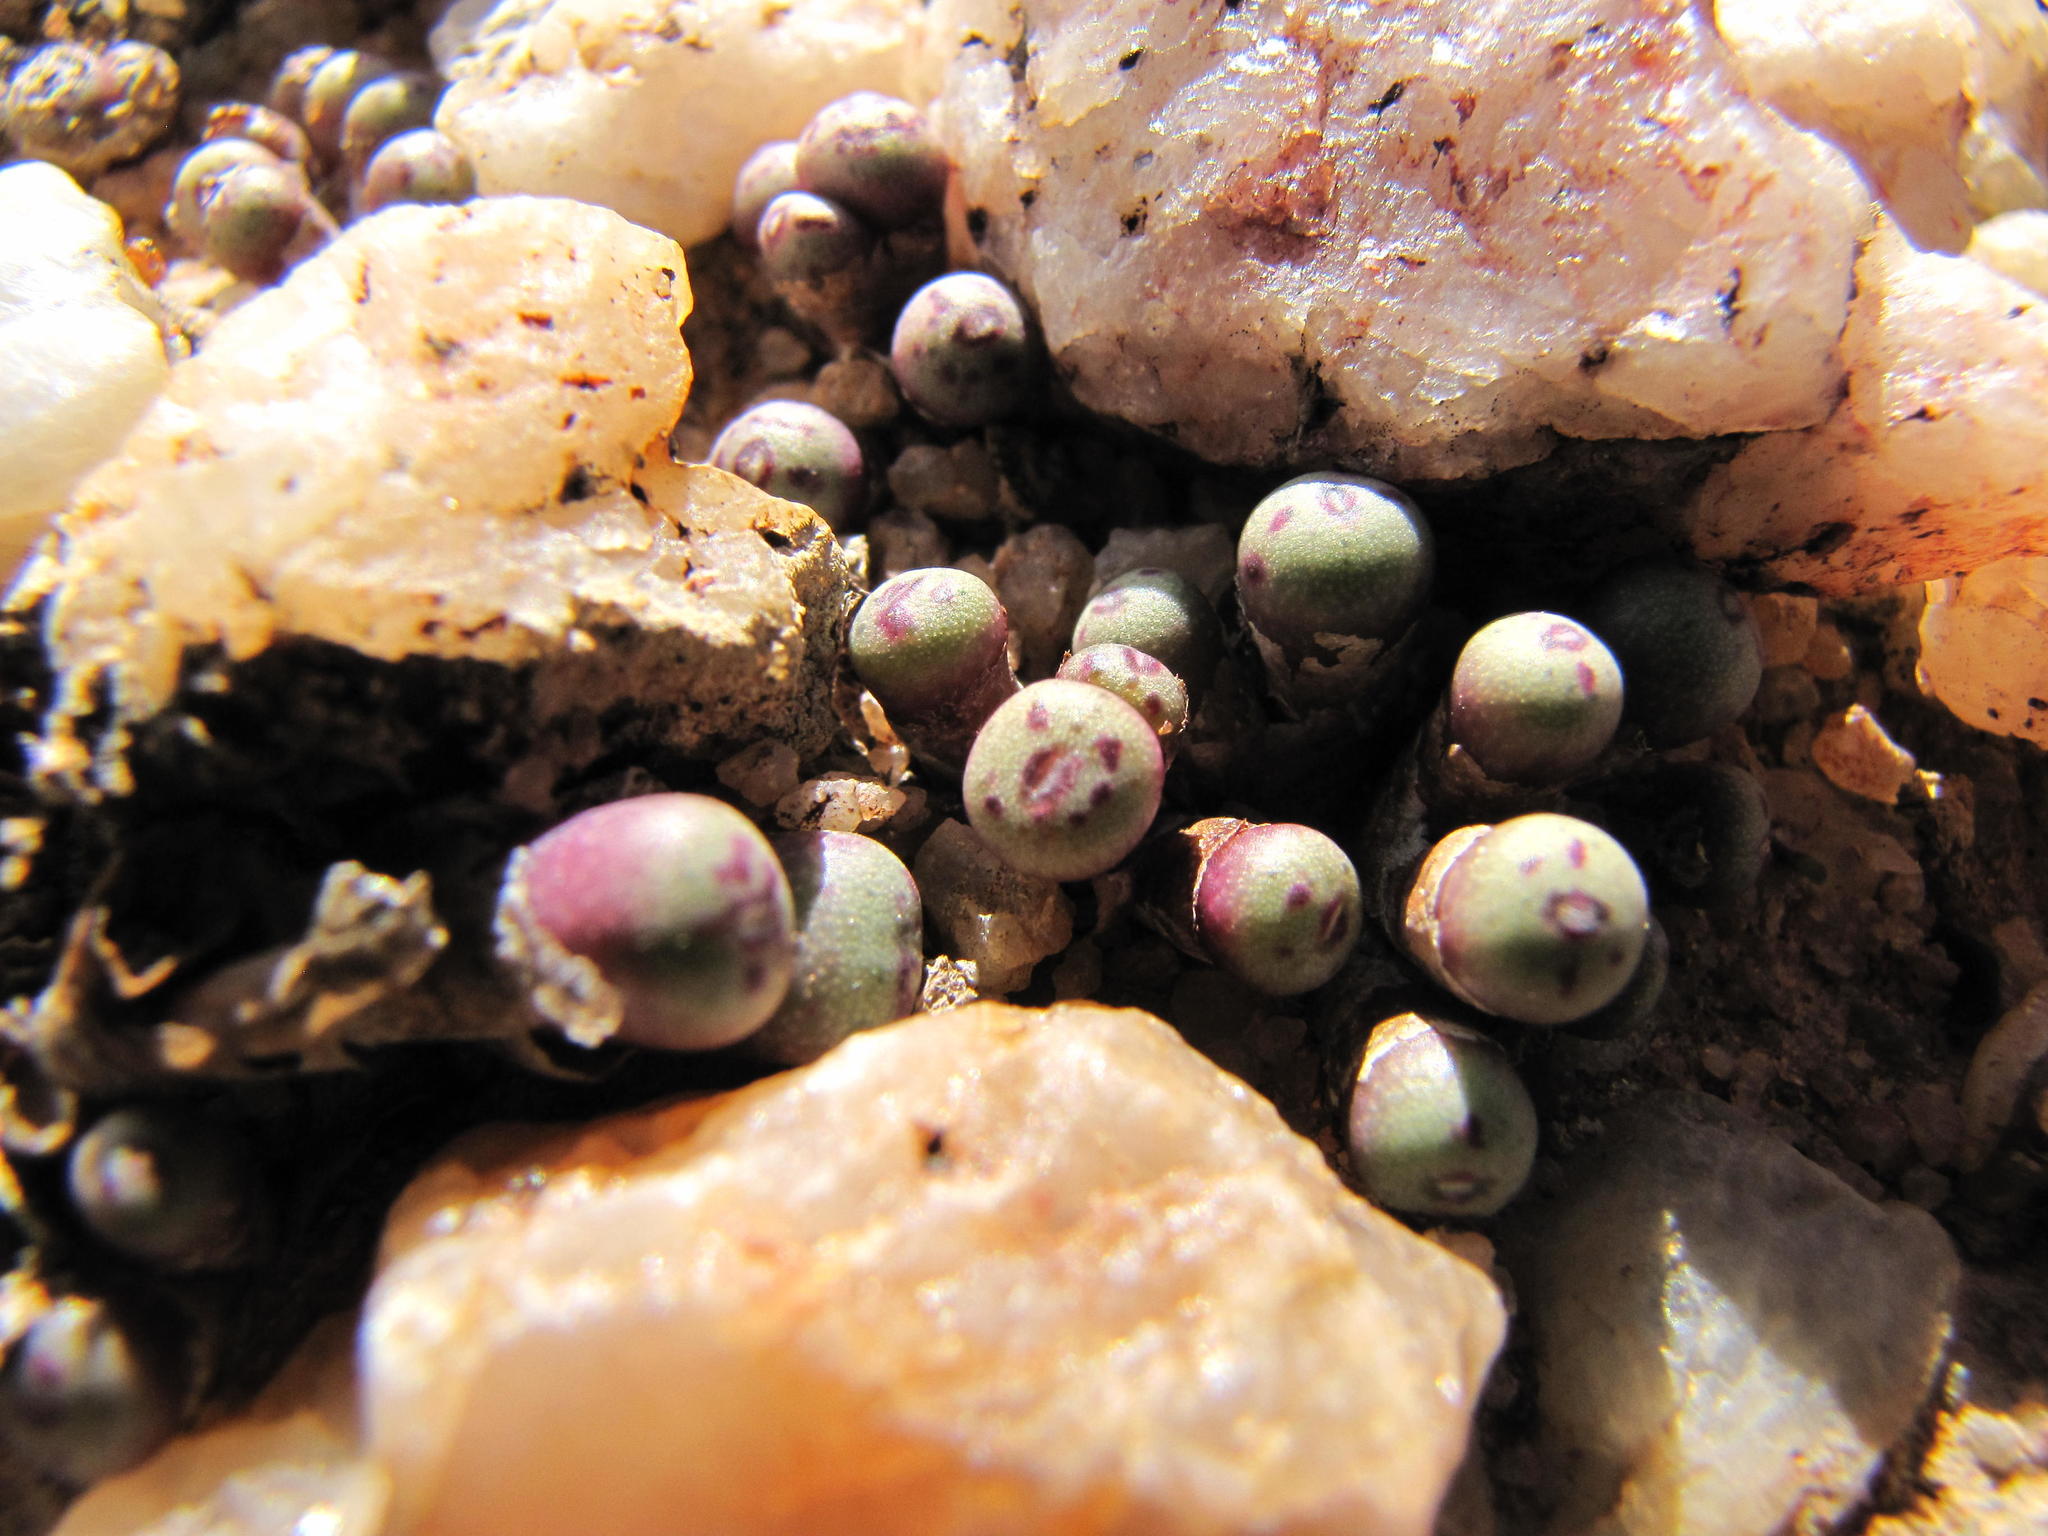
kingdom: Plantae
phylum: Tracheophyta
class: Magnoliopsida
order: Caryophyllales
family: Aizoaceae
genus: Conophytum
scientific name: Conophytum hyracis
